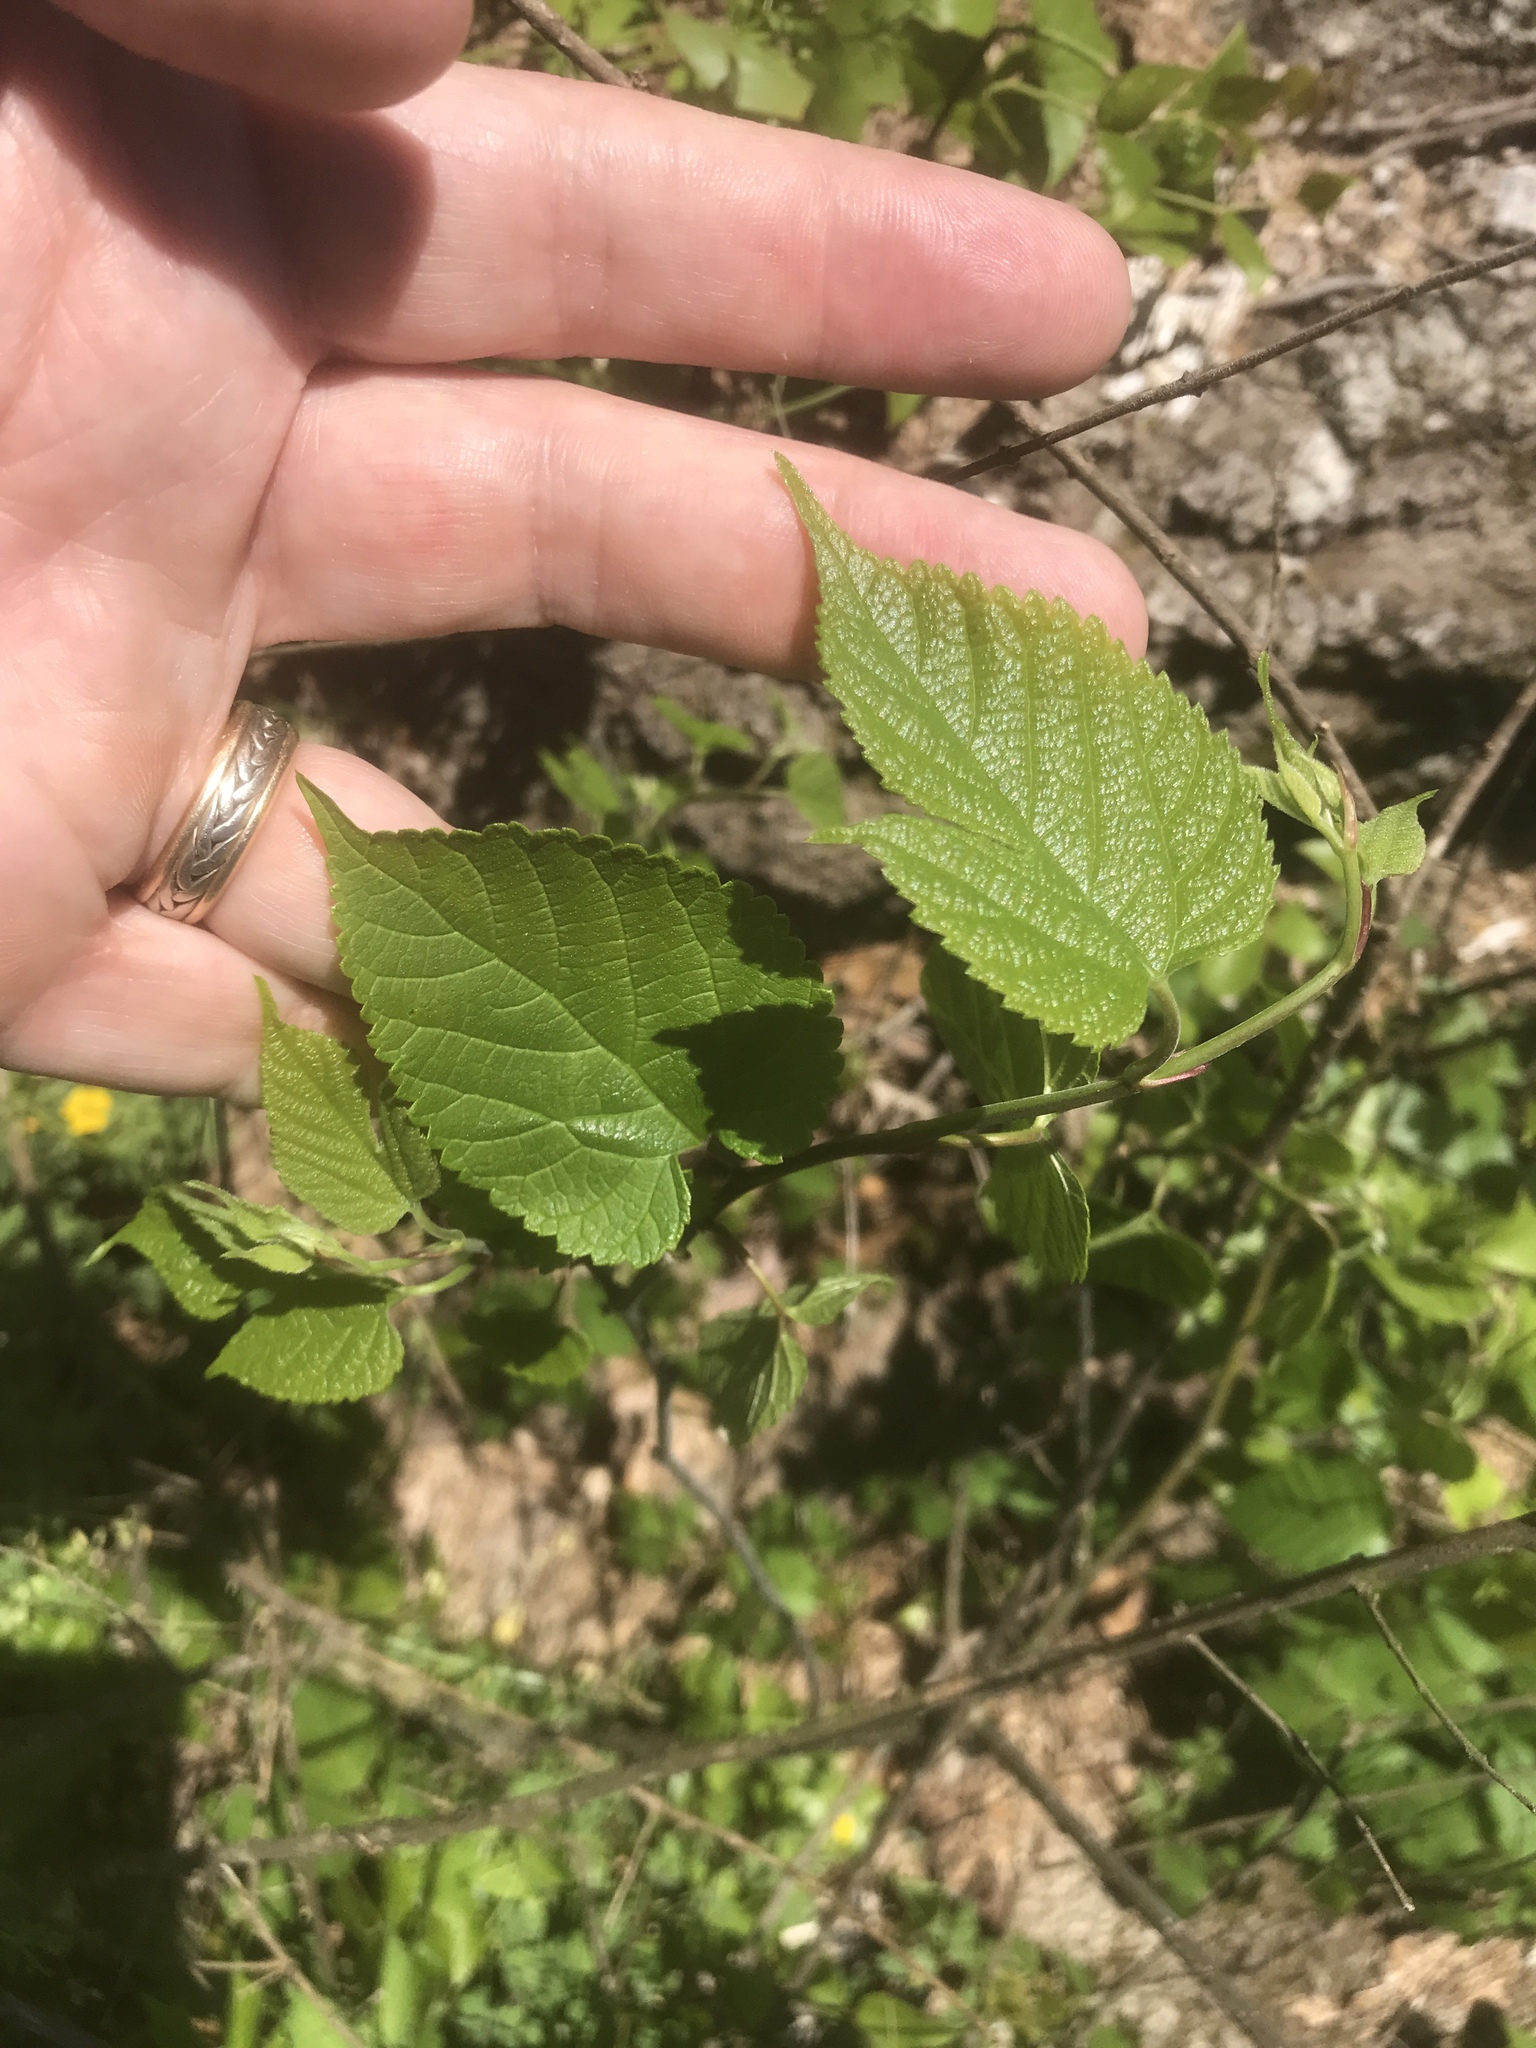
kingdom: Plantae
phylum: Tracheophyta
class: Magnoliopsida
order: Rosales
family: Moraceae
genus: Morus
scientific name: Morus rubra
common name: Red mulberry
